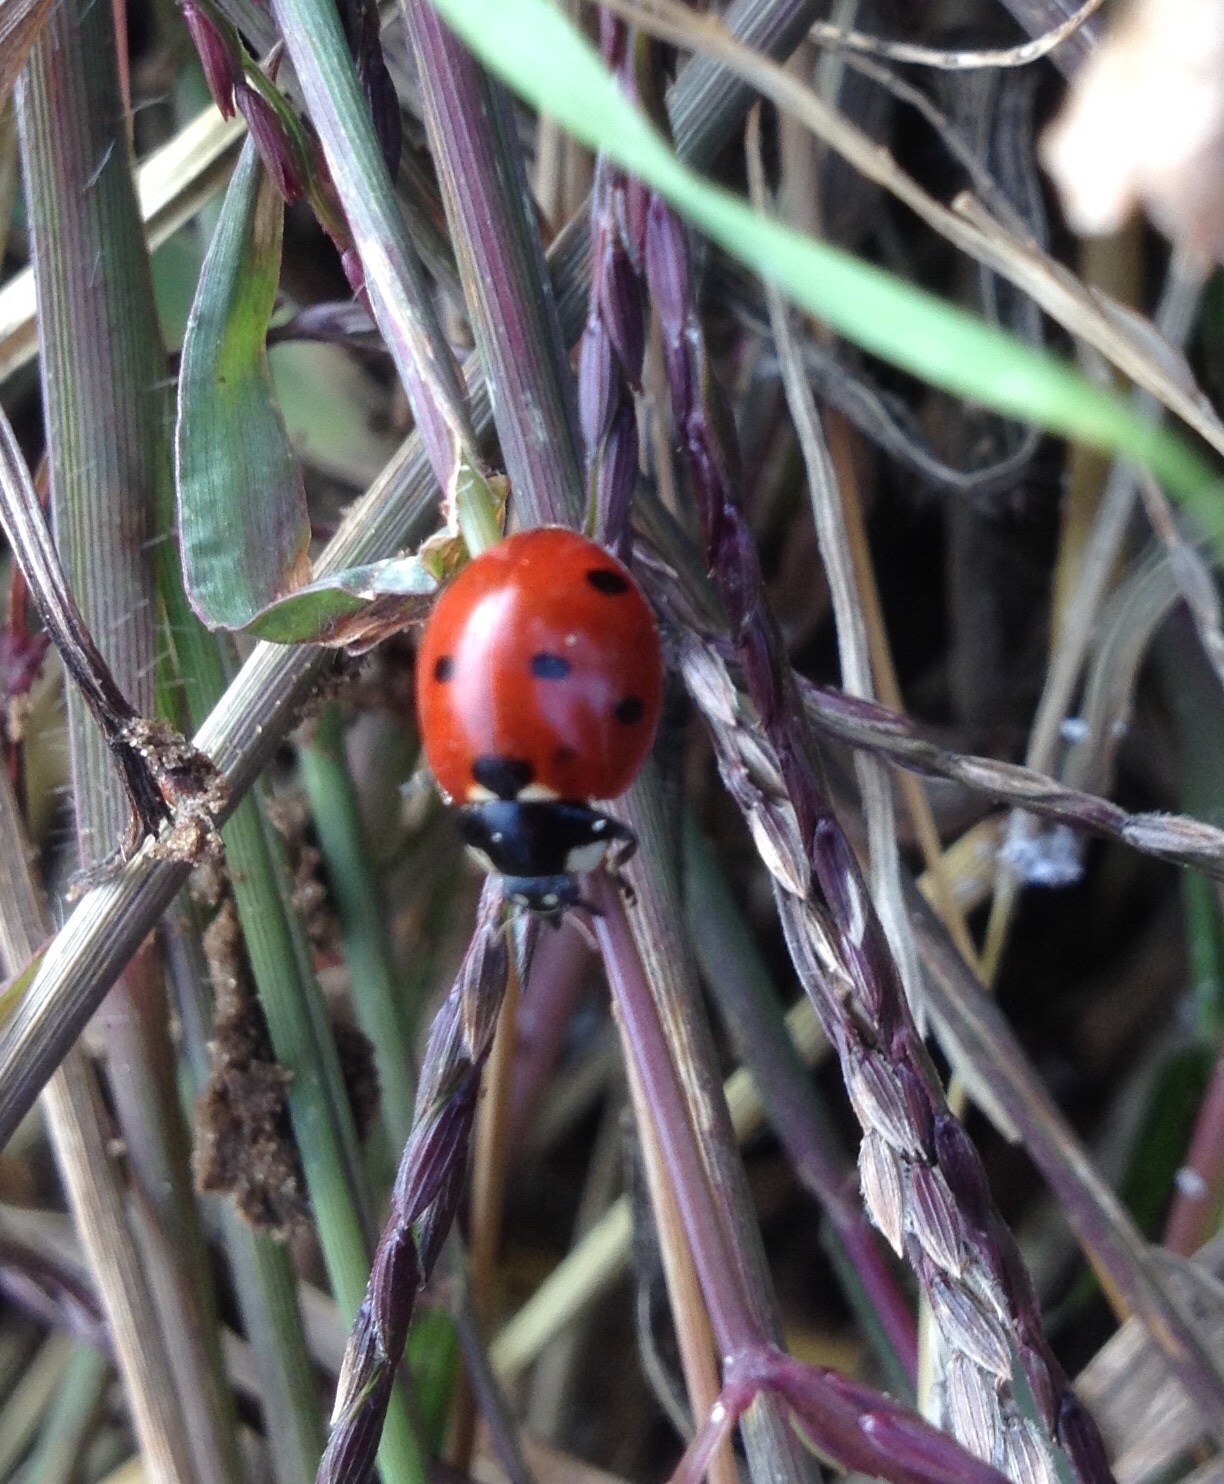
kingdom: Animalia
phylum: Arthropoda
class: Insecta
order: Coleoptera
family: Coccinellidae
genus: Coccinella
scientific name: Coccinella septempunctata
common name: Sevenspotted lady beetle
